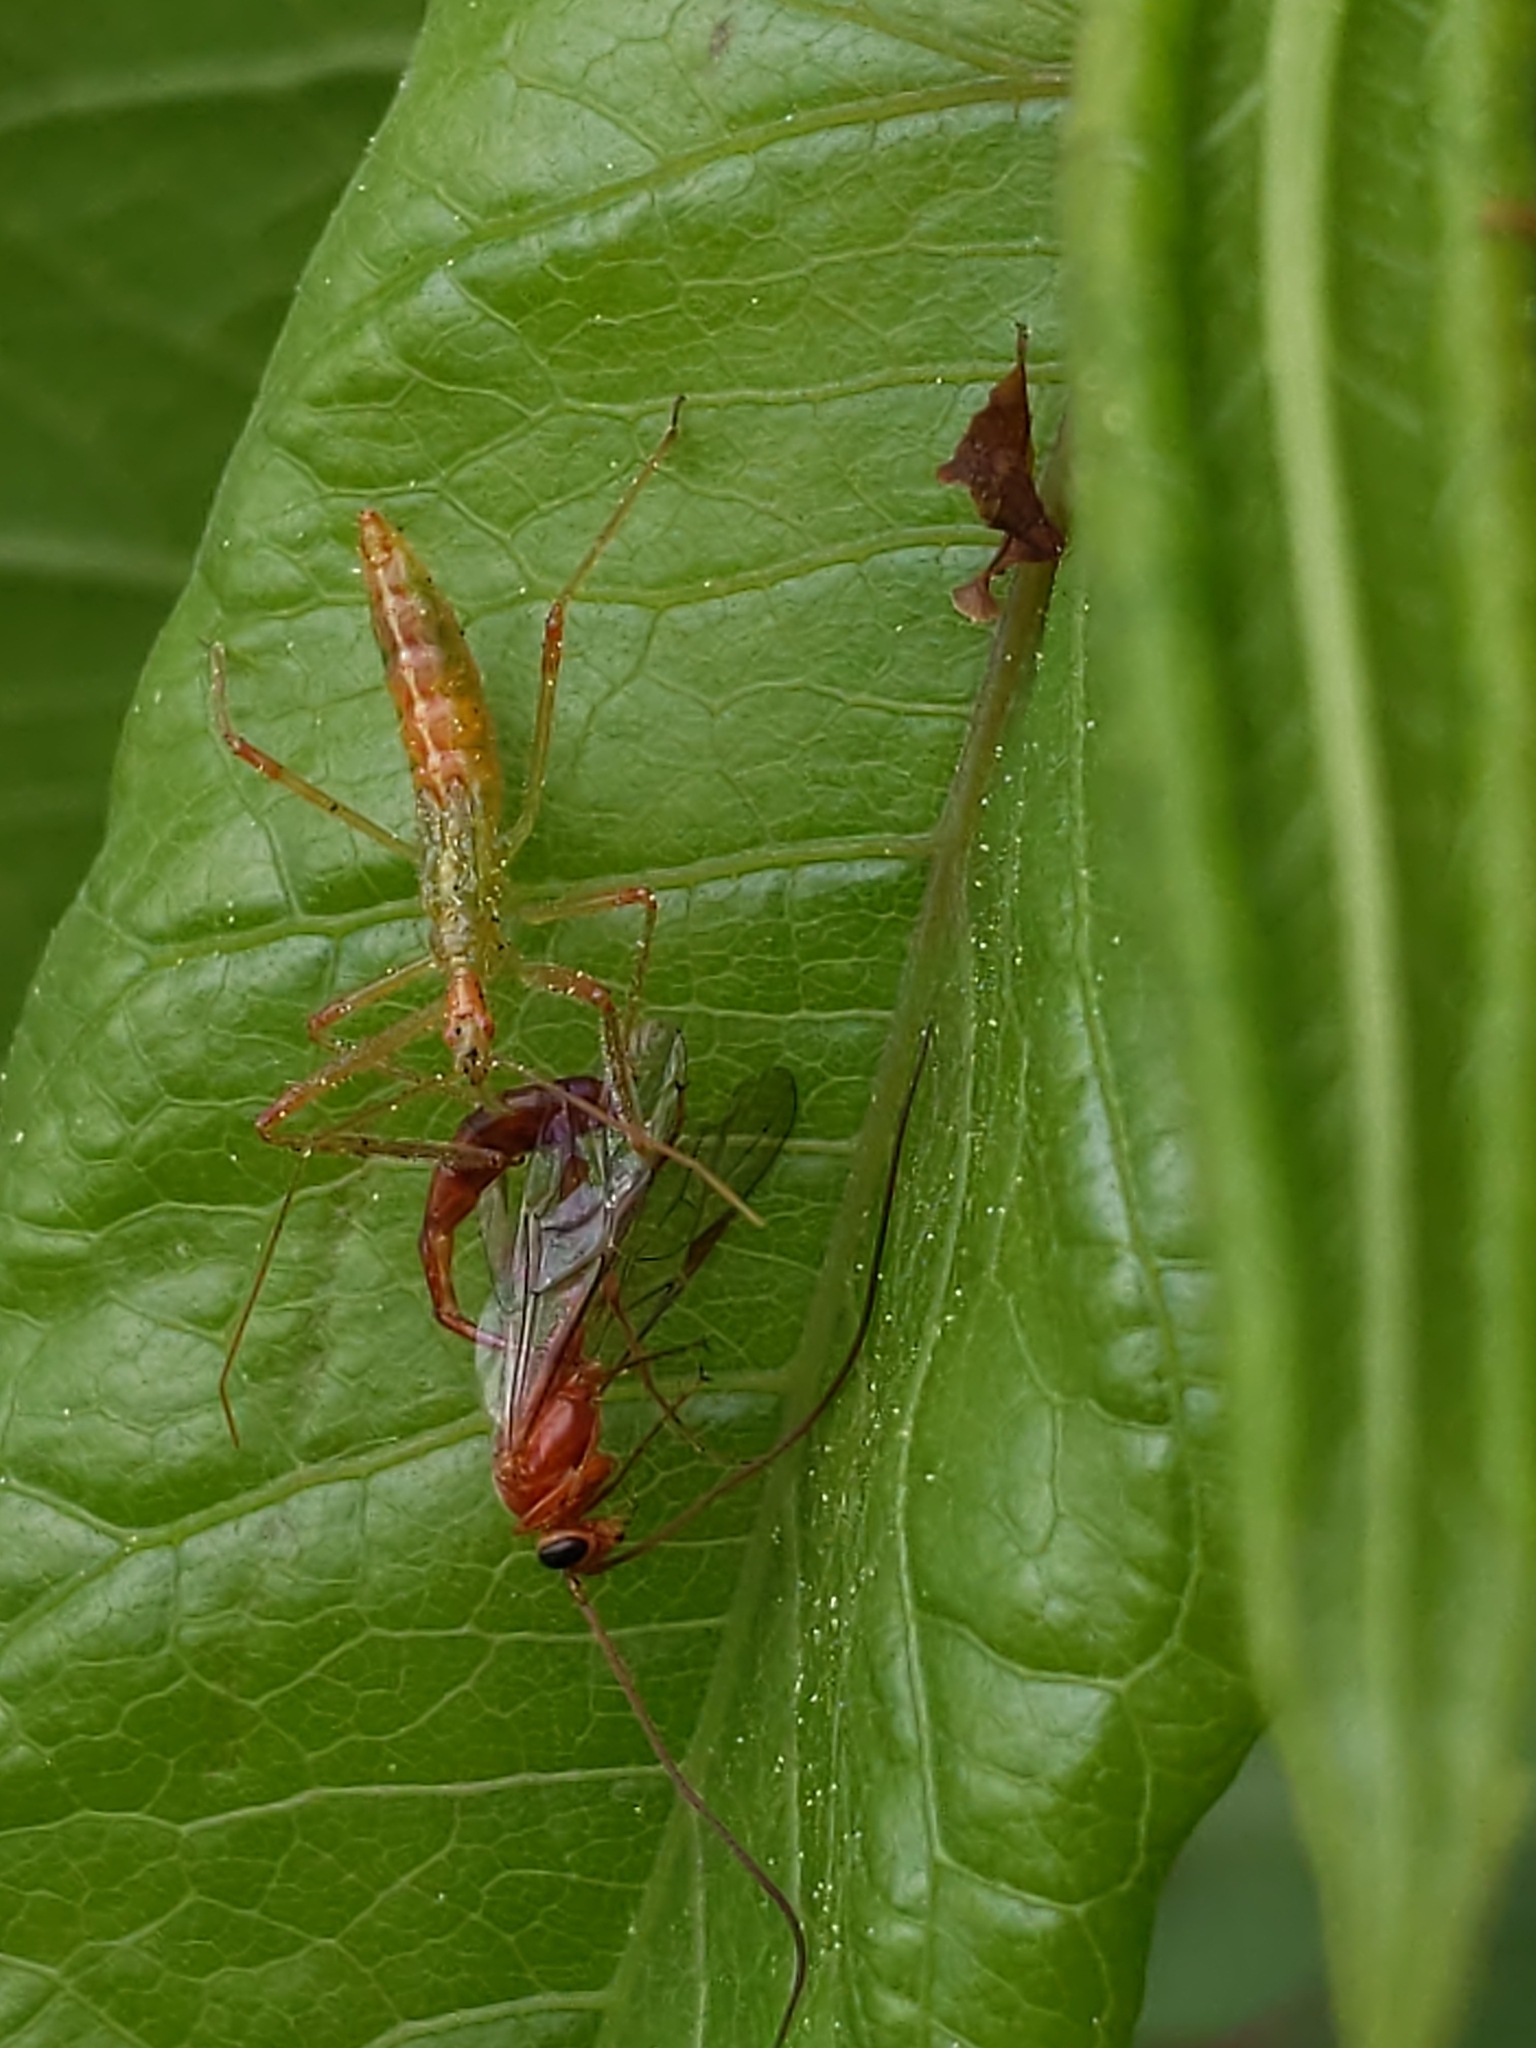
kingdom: Animalia
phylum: Arthropoda
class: Insecta
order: Hemiptera
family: Reduviidae
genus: Zelus
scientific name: Zelus luridus
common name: Pale green assassin bug
